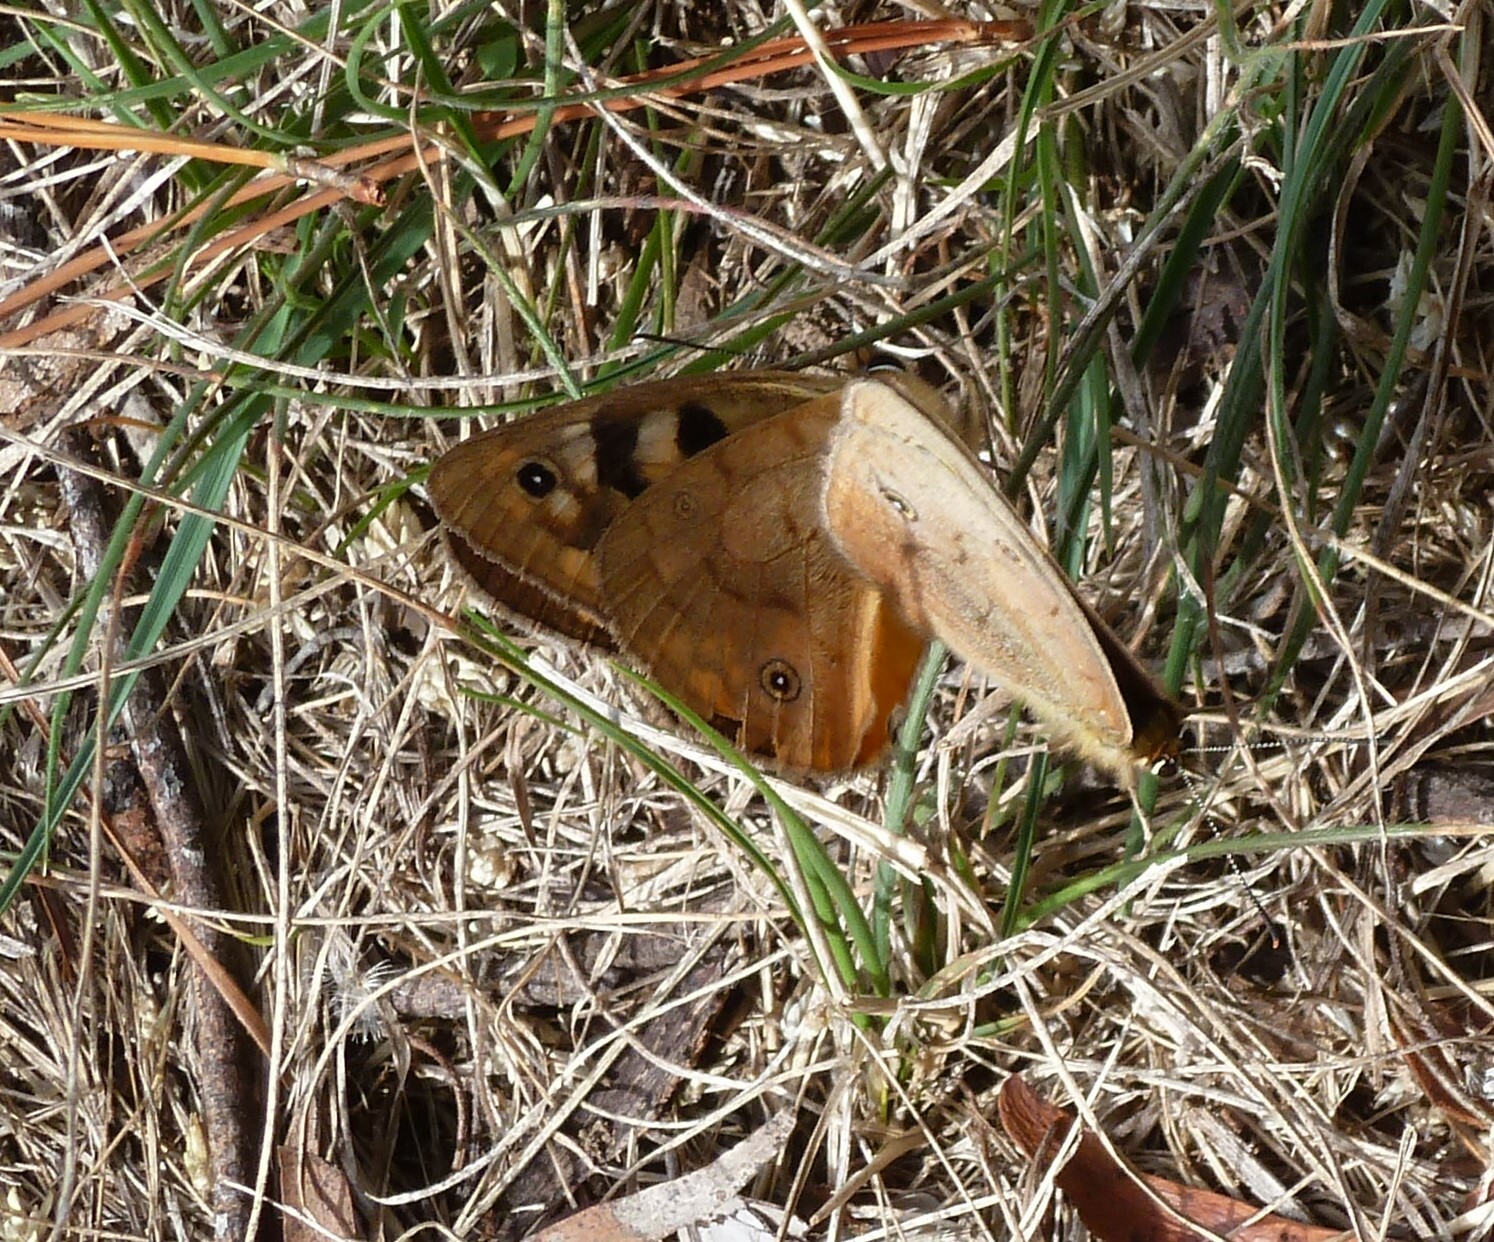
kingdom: Animalia
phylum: Arthropoda
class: Insecta
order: Lepidoptera
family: Nymphalidae
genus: Heteronympha
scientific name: Heteronympha penelope
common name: Shouldered brown
